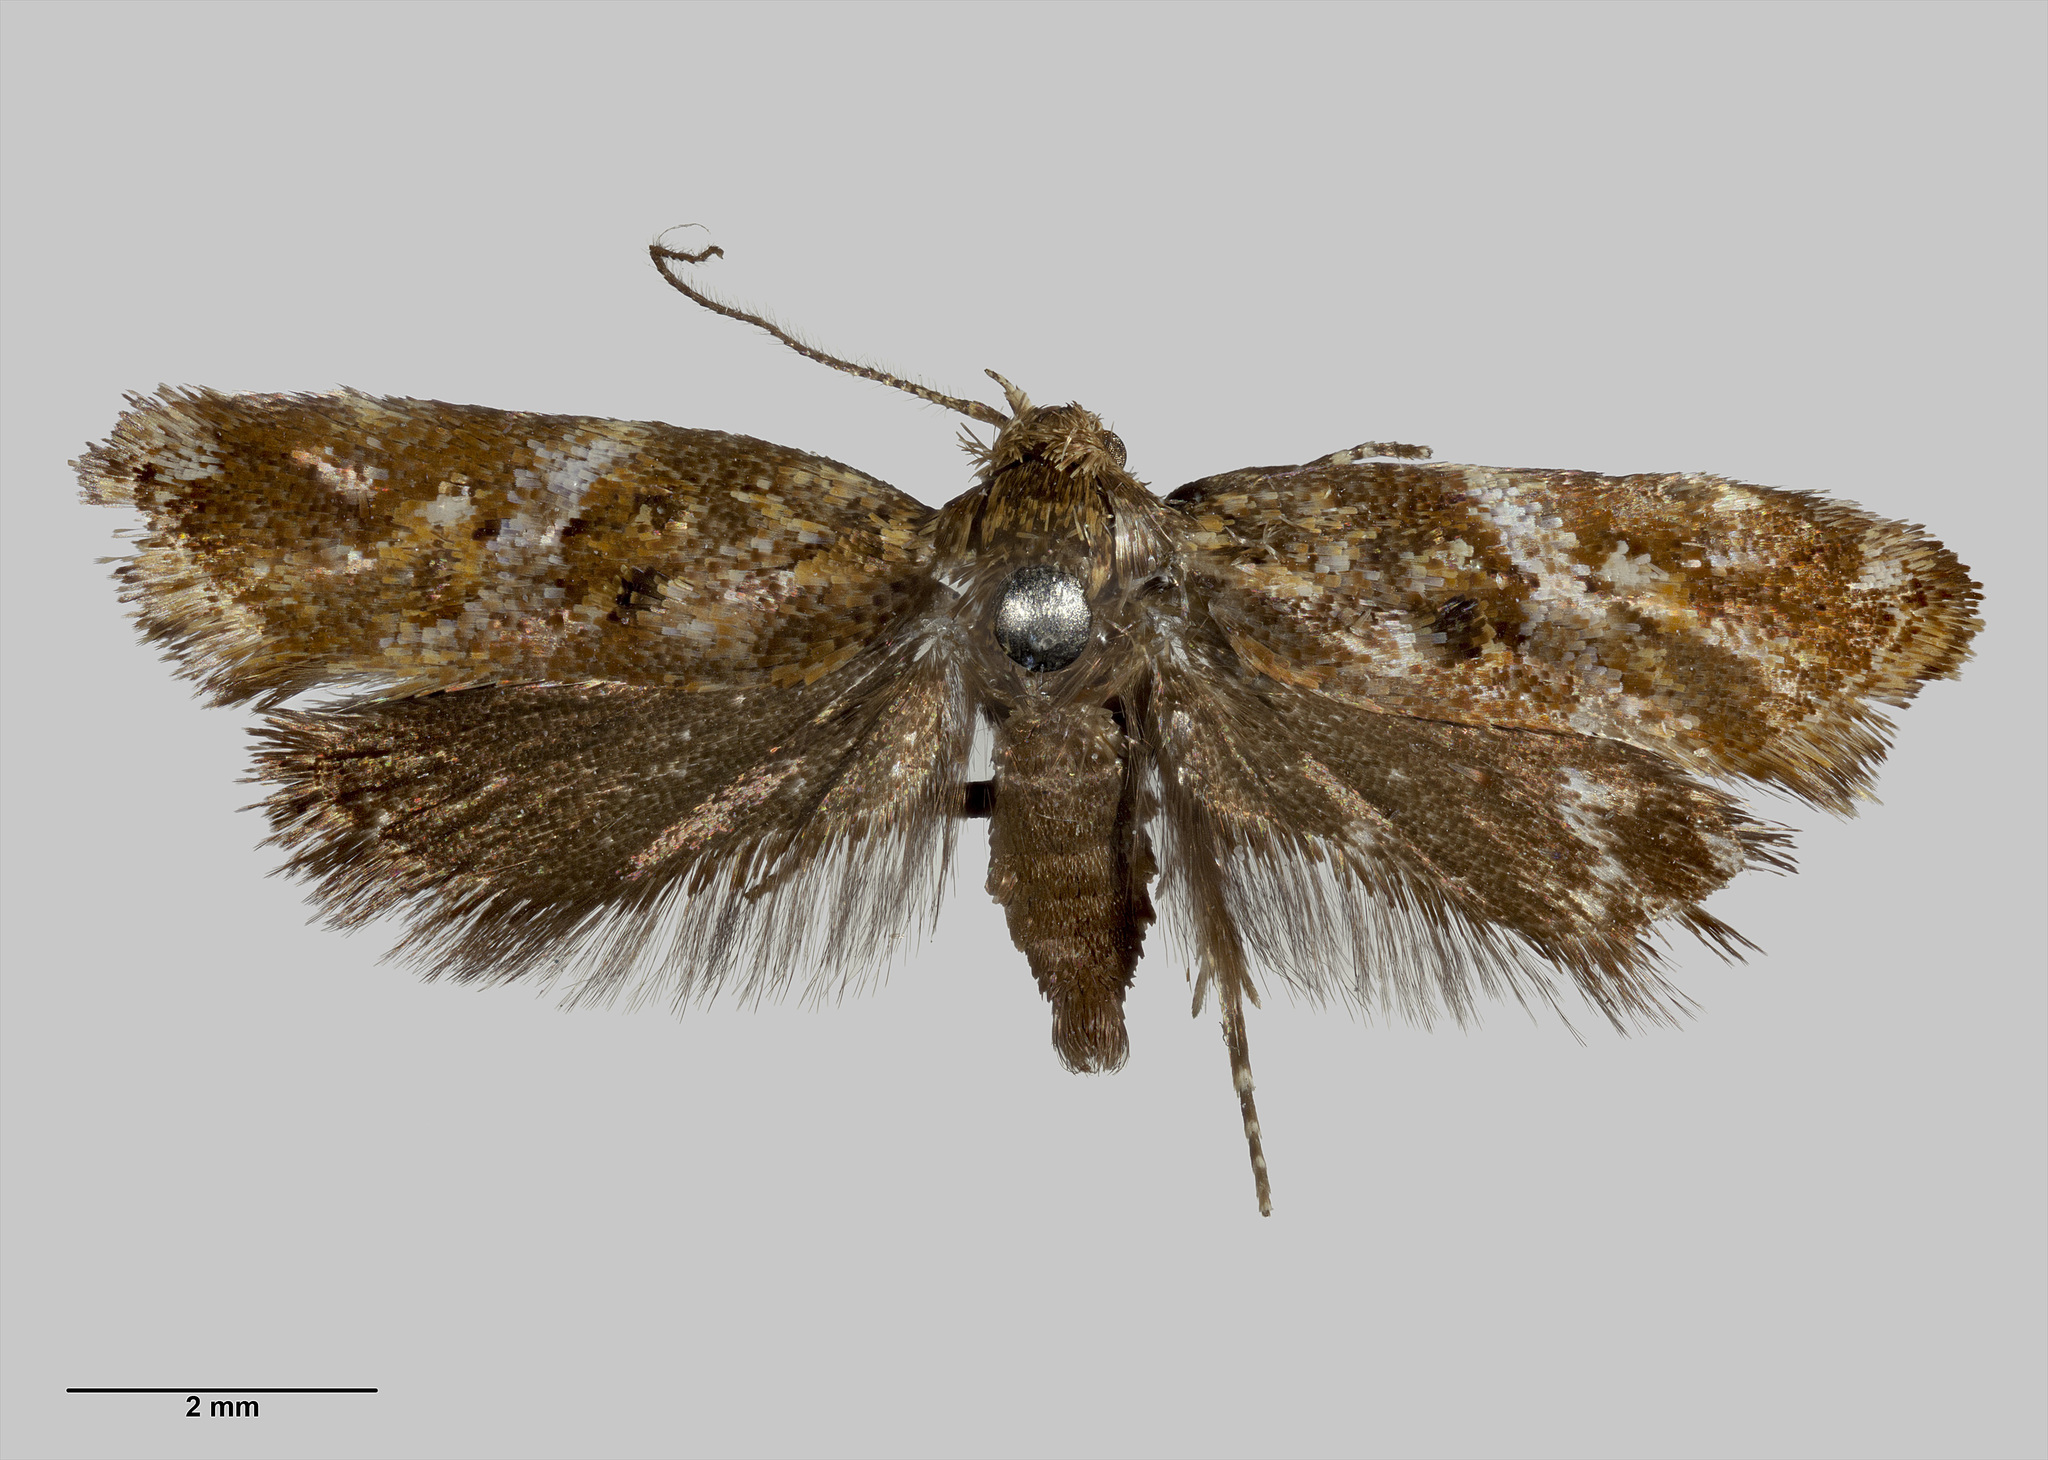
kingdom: Animalia
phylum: Arthropoda
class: Insecta
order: Lepidoptera
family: Oecophoridae
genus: Tingena
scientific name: Tingena eumenopa
